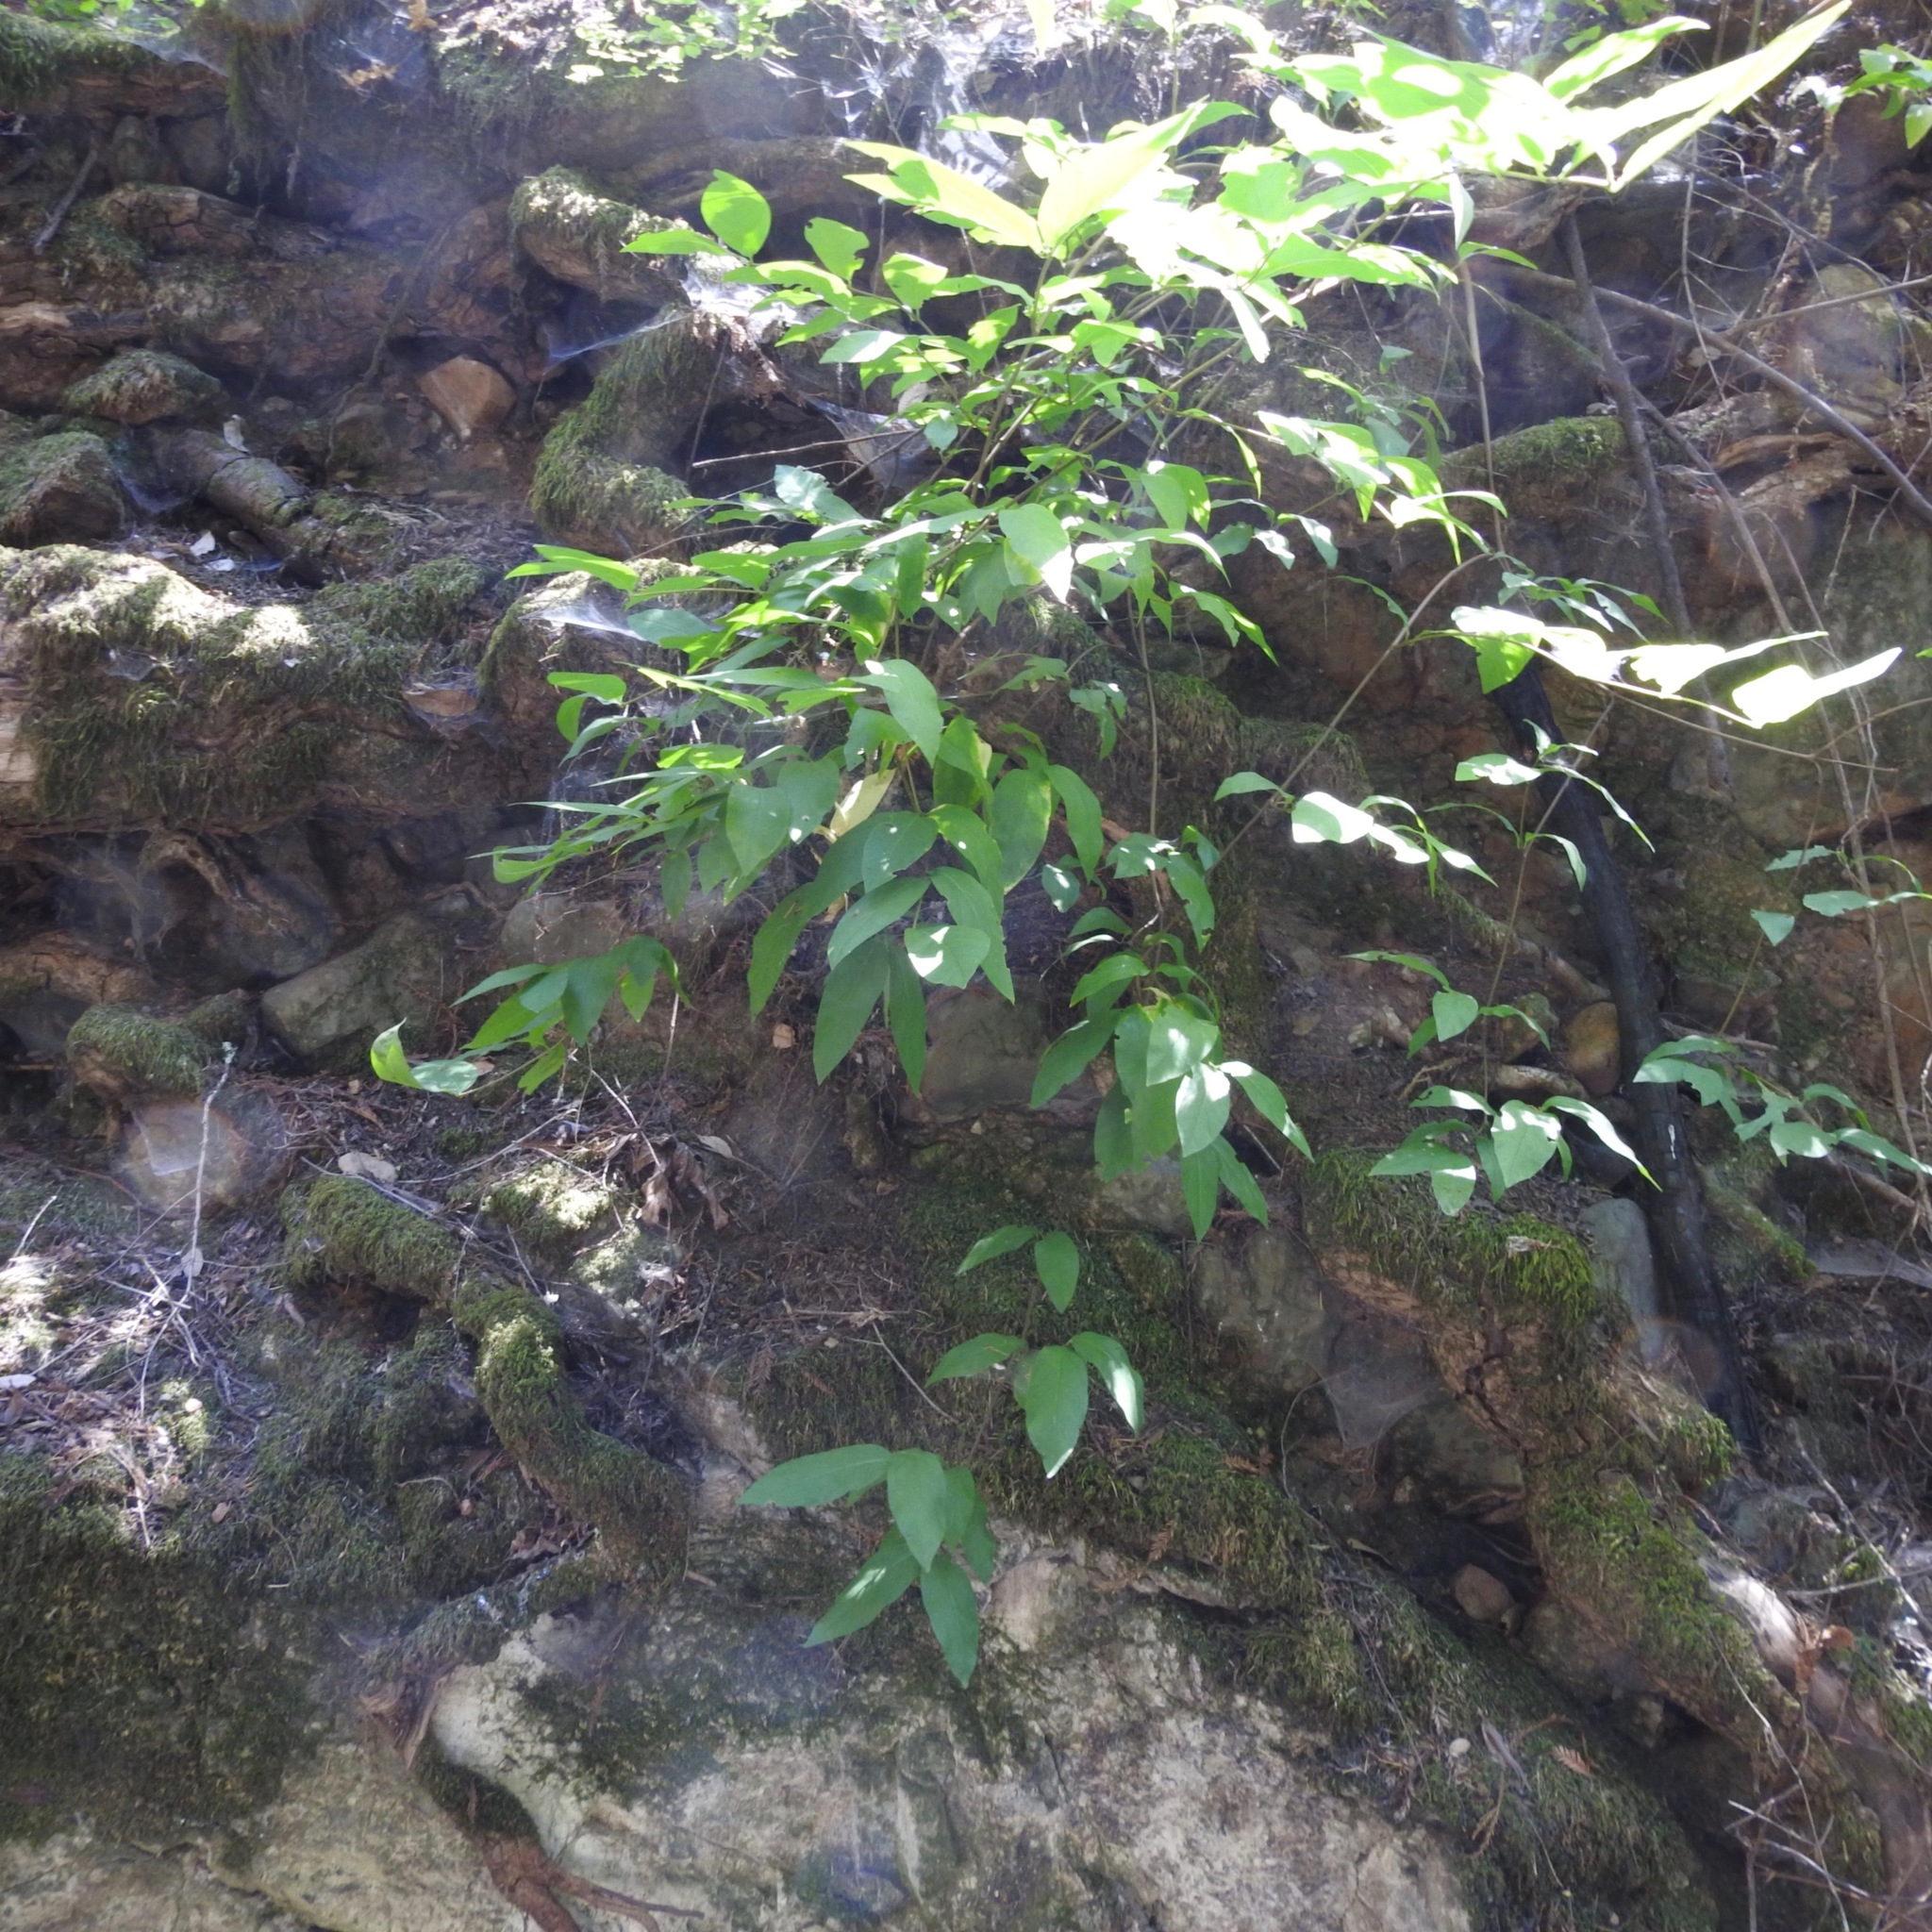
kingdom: Plantae
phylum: Tracheophyta
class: Magnoliopsida
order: Laurales
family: Calycanthaceae
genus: Calycanthus
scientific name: Calycanthus occidentalis
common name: California spicebush
